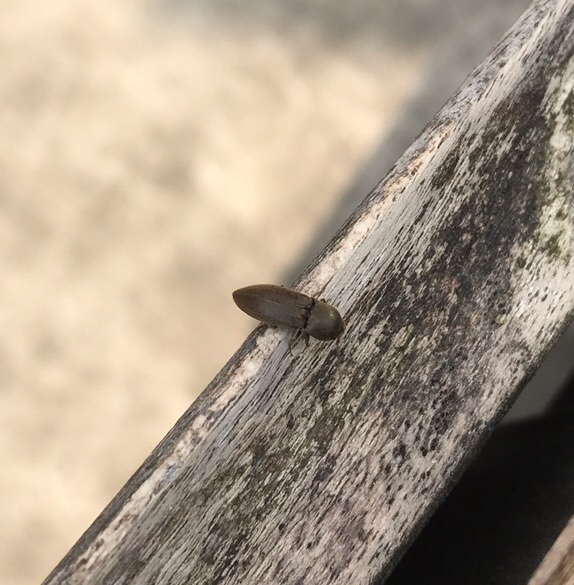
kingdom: Animalia
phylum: Arthropoda
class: Insecta
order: Coleoptera
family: Elateridae
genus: Agriotes
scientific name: Agriotes obscurus
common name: Dusky wireworm
